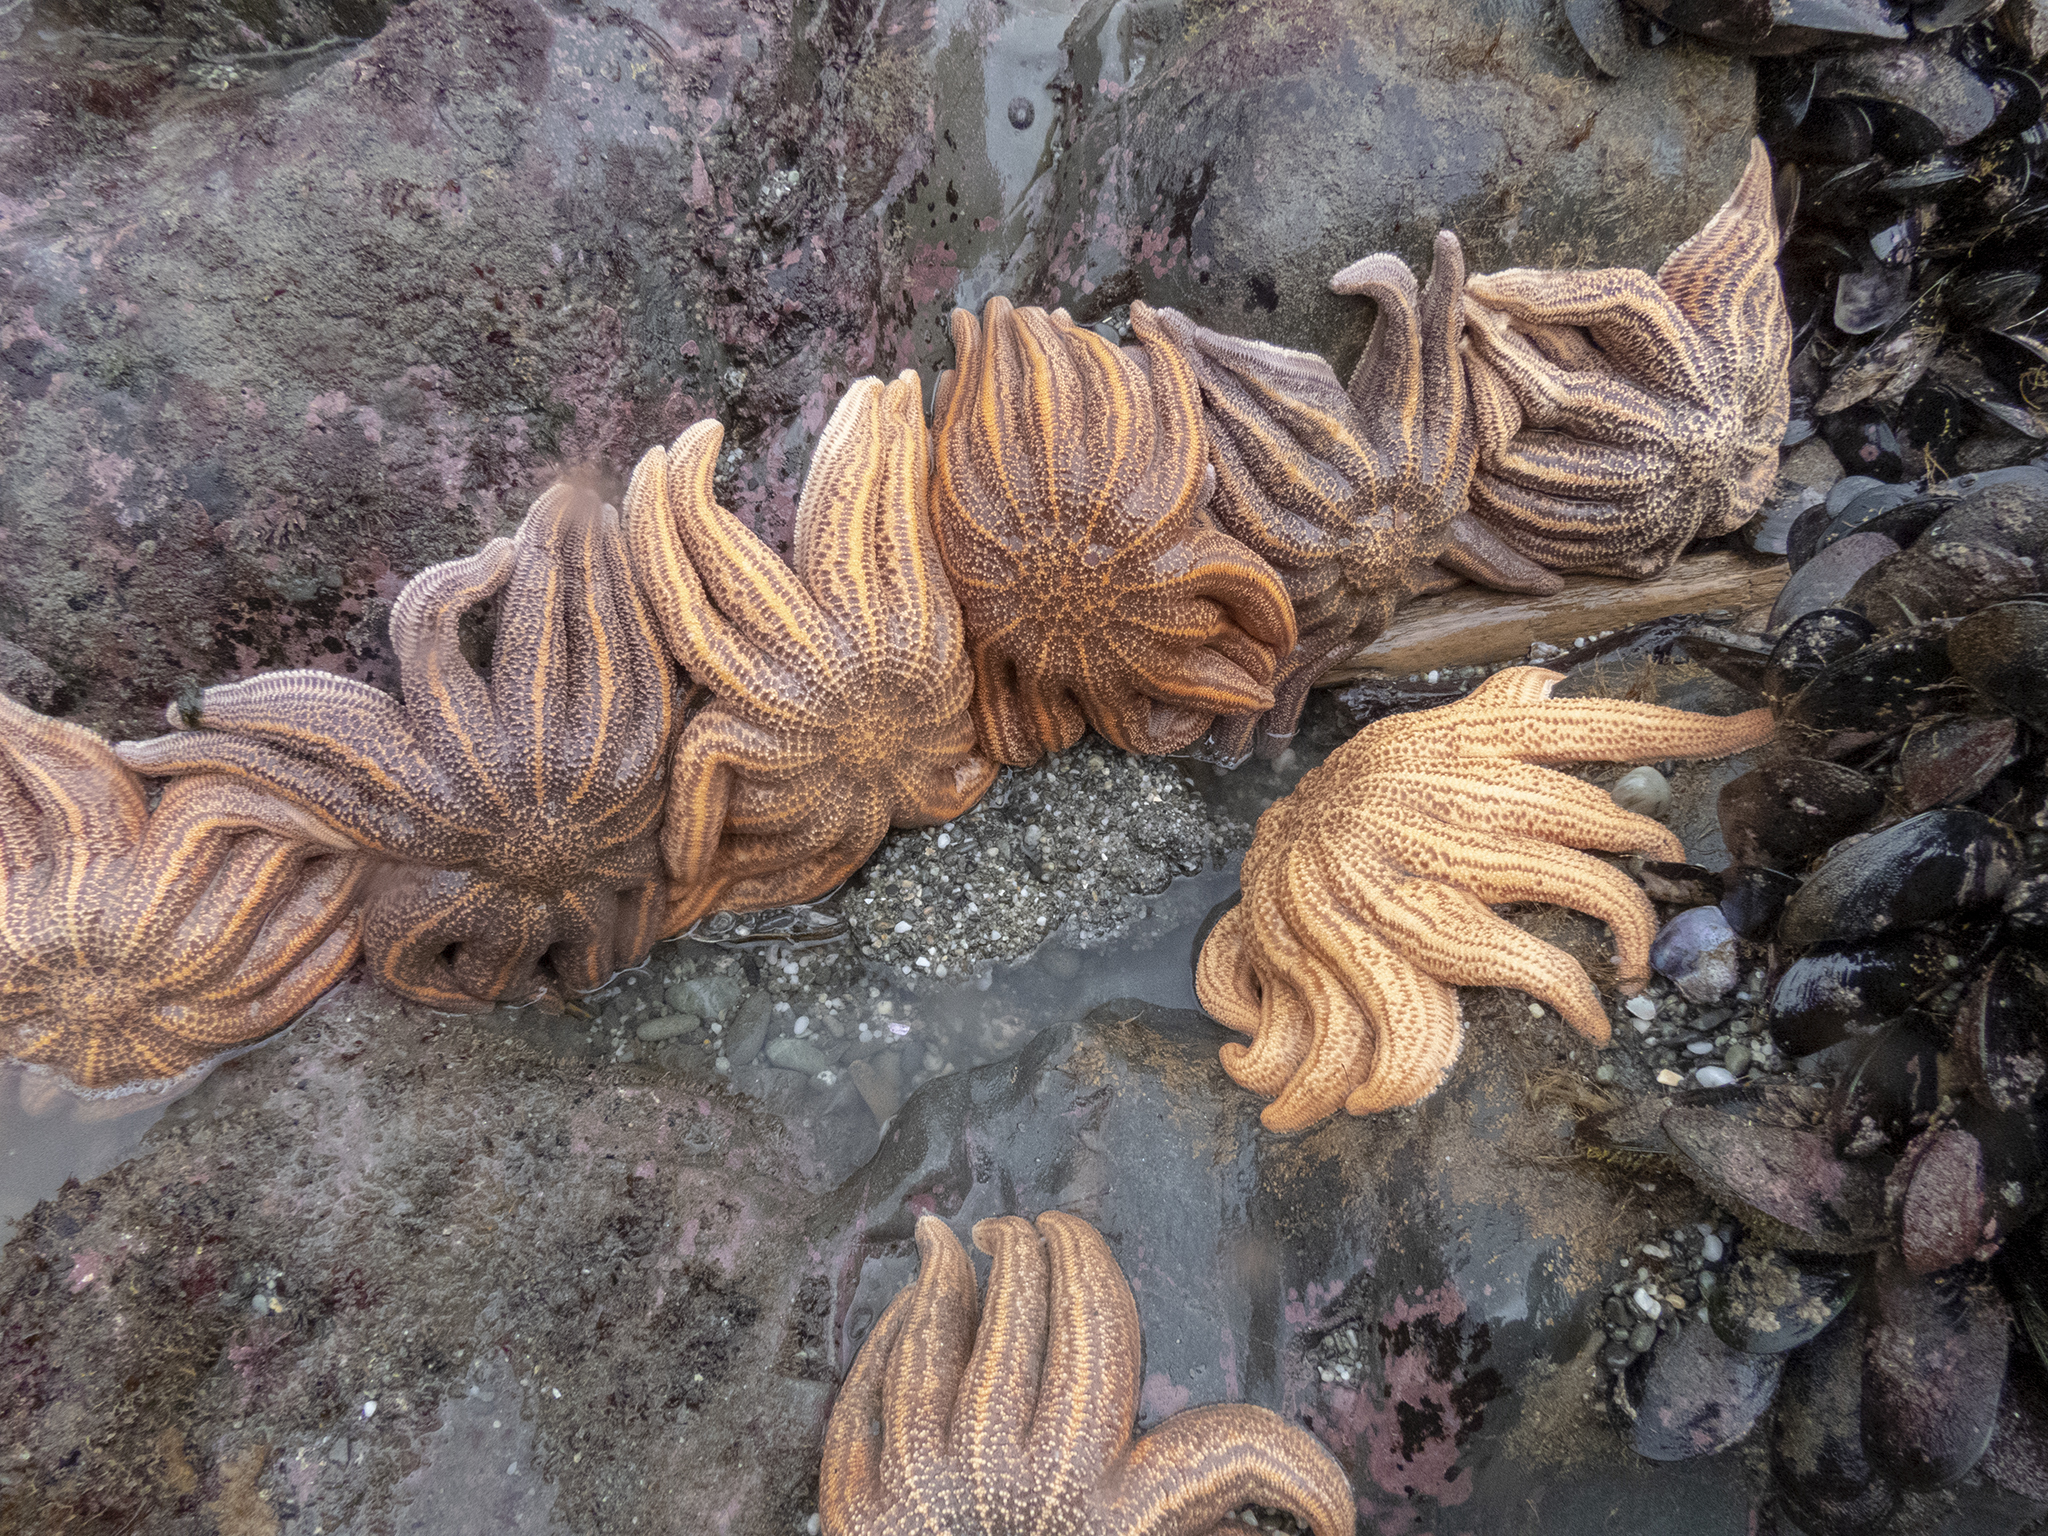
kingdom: Animalia
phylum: Echinodermata
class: Asteroidea
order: Forcipulatida
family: Stichasteridae
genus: Stichaster
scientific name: Stichaster australis
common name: Reef starfish
